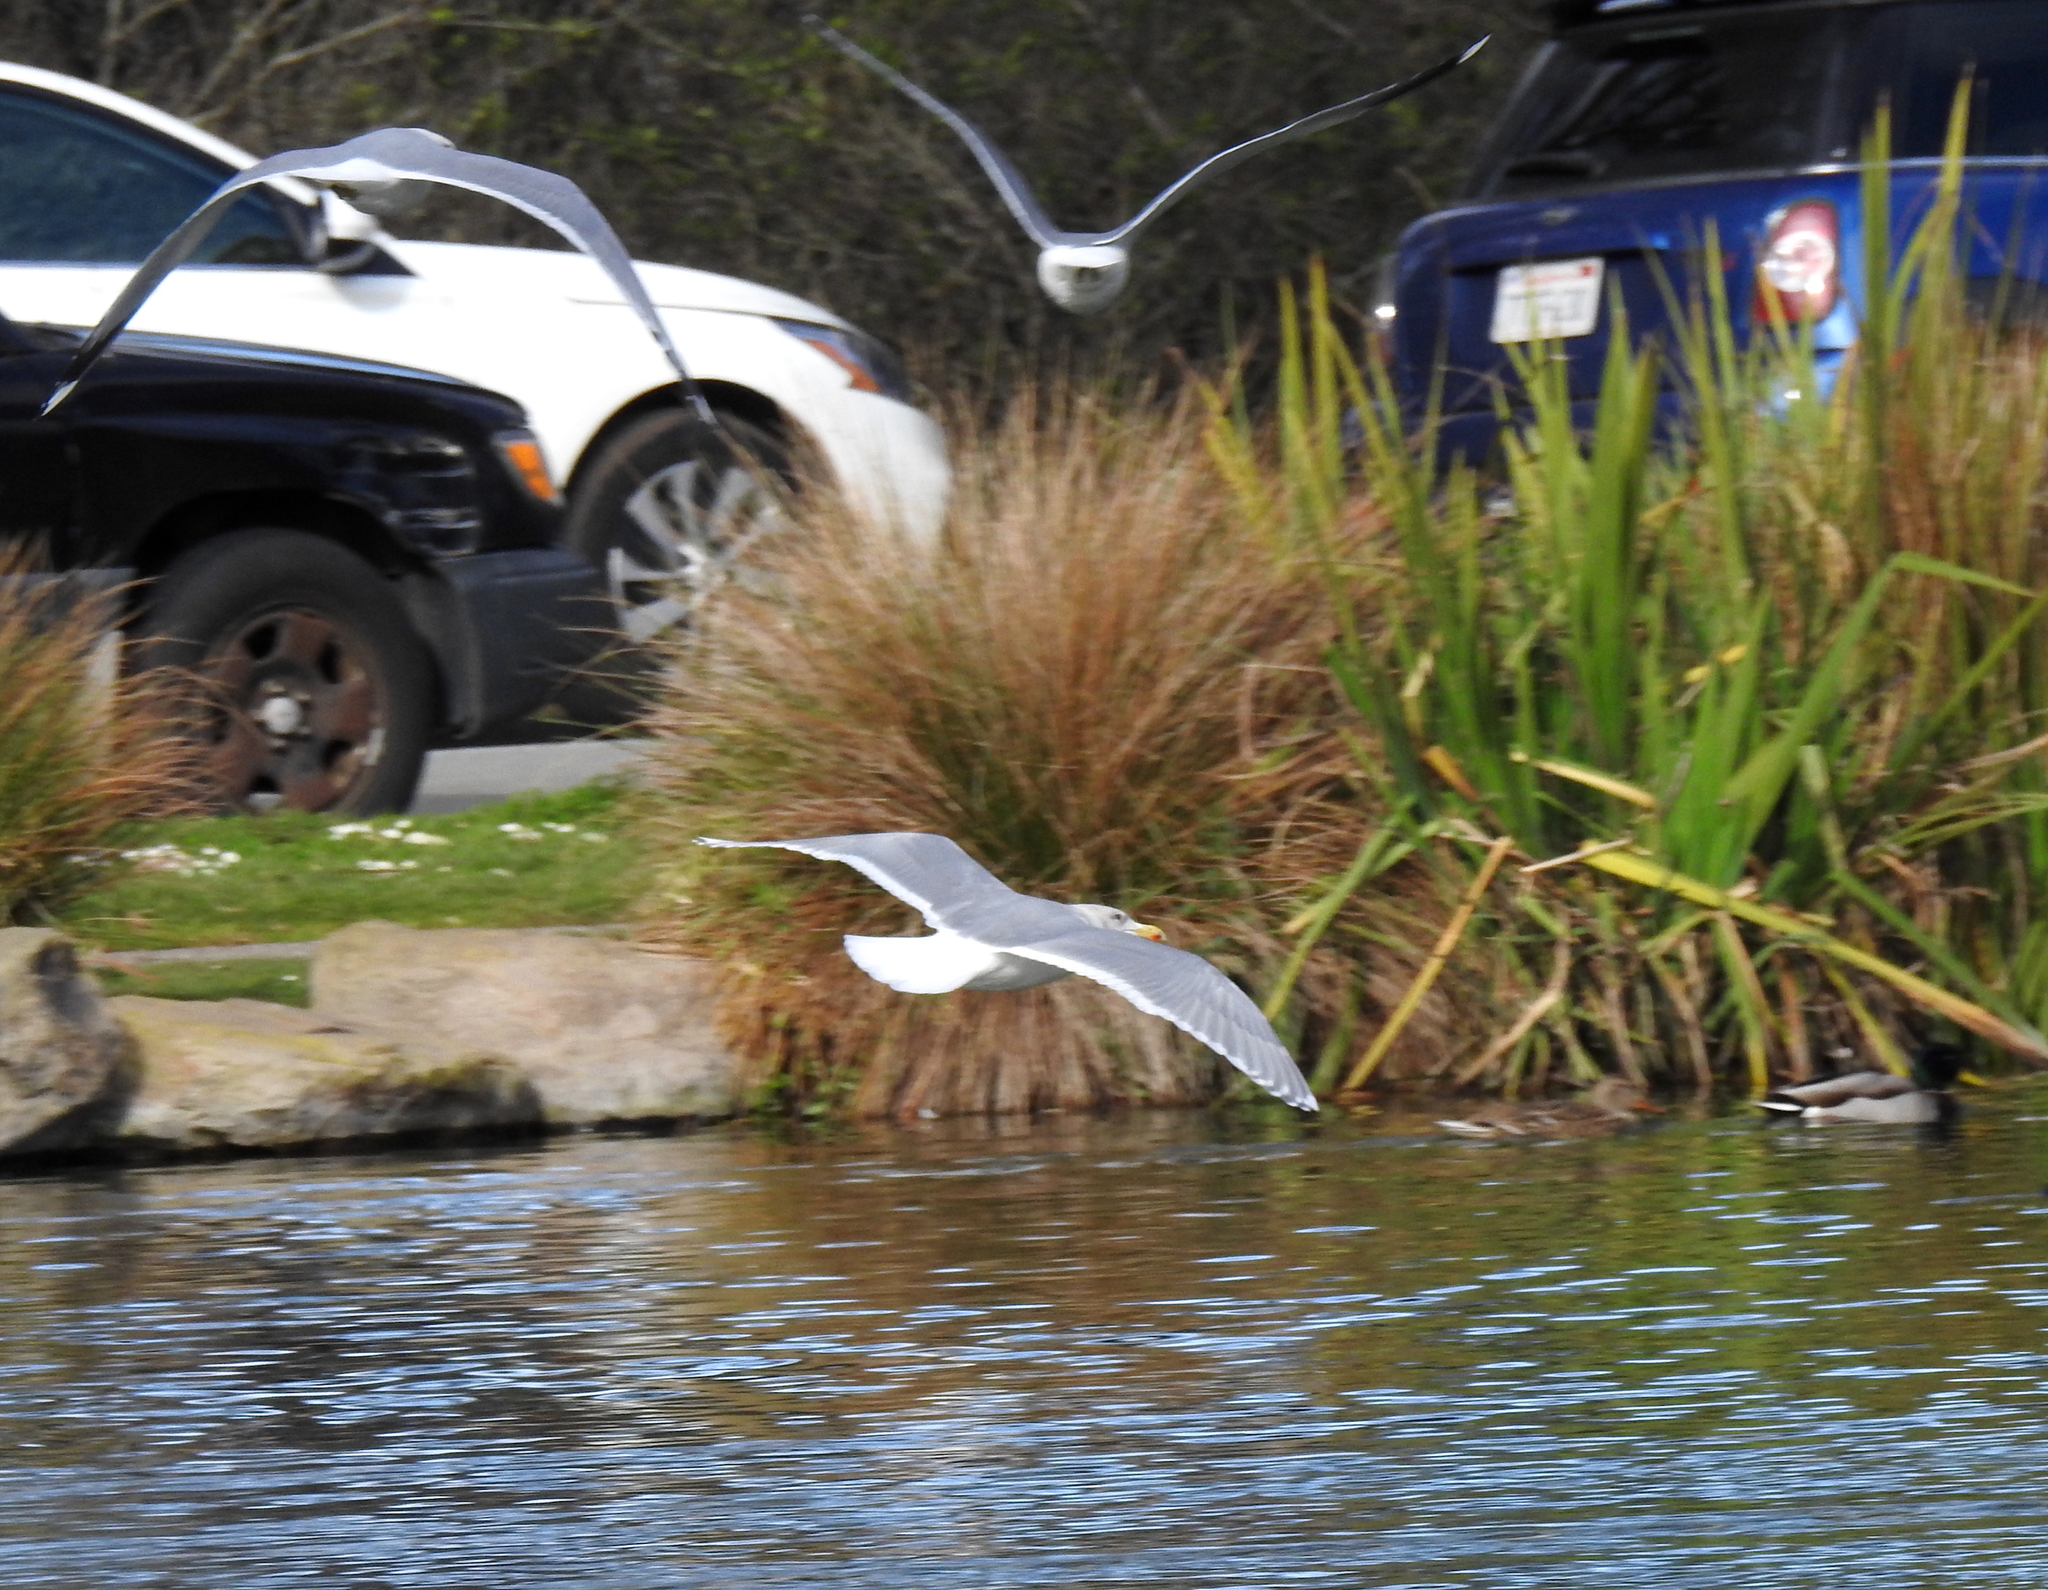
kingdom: Animalia
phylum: Chordata
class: Aves
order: Charadriiformes
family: Laridae
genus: Larus
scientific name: Larus glaucescens
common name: Glaucous-winged gull
